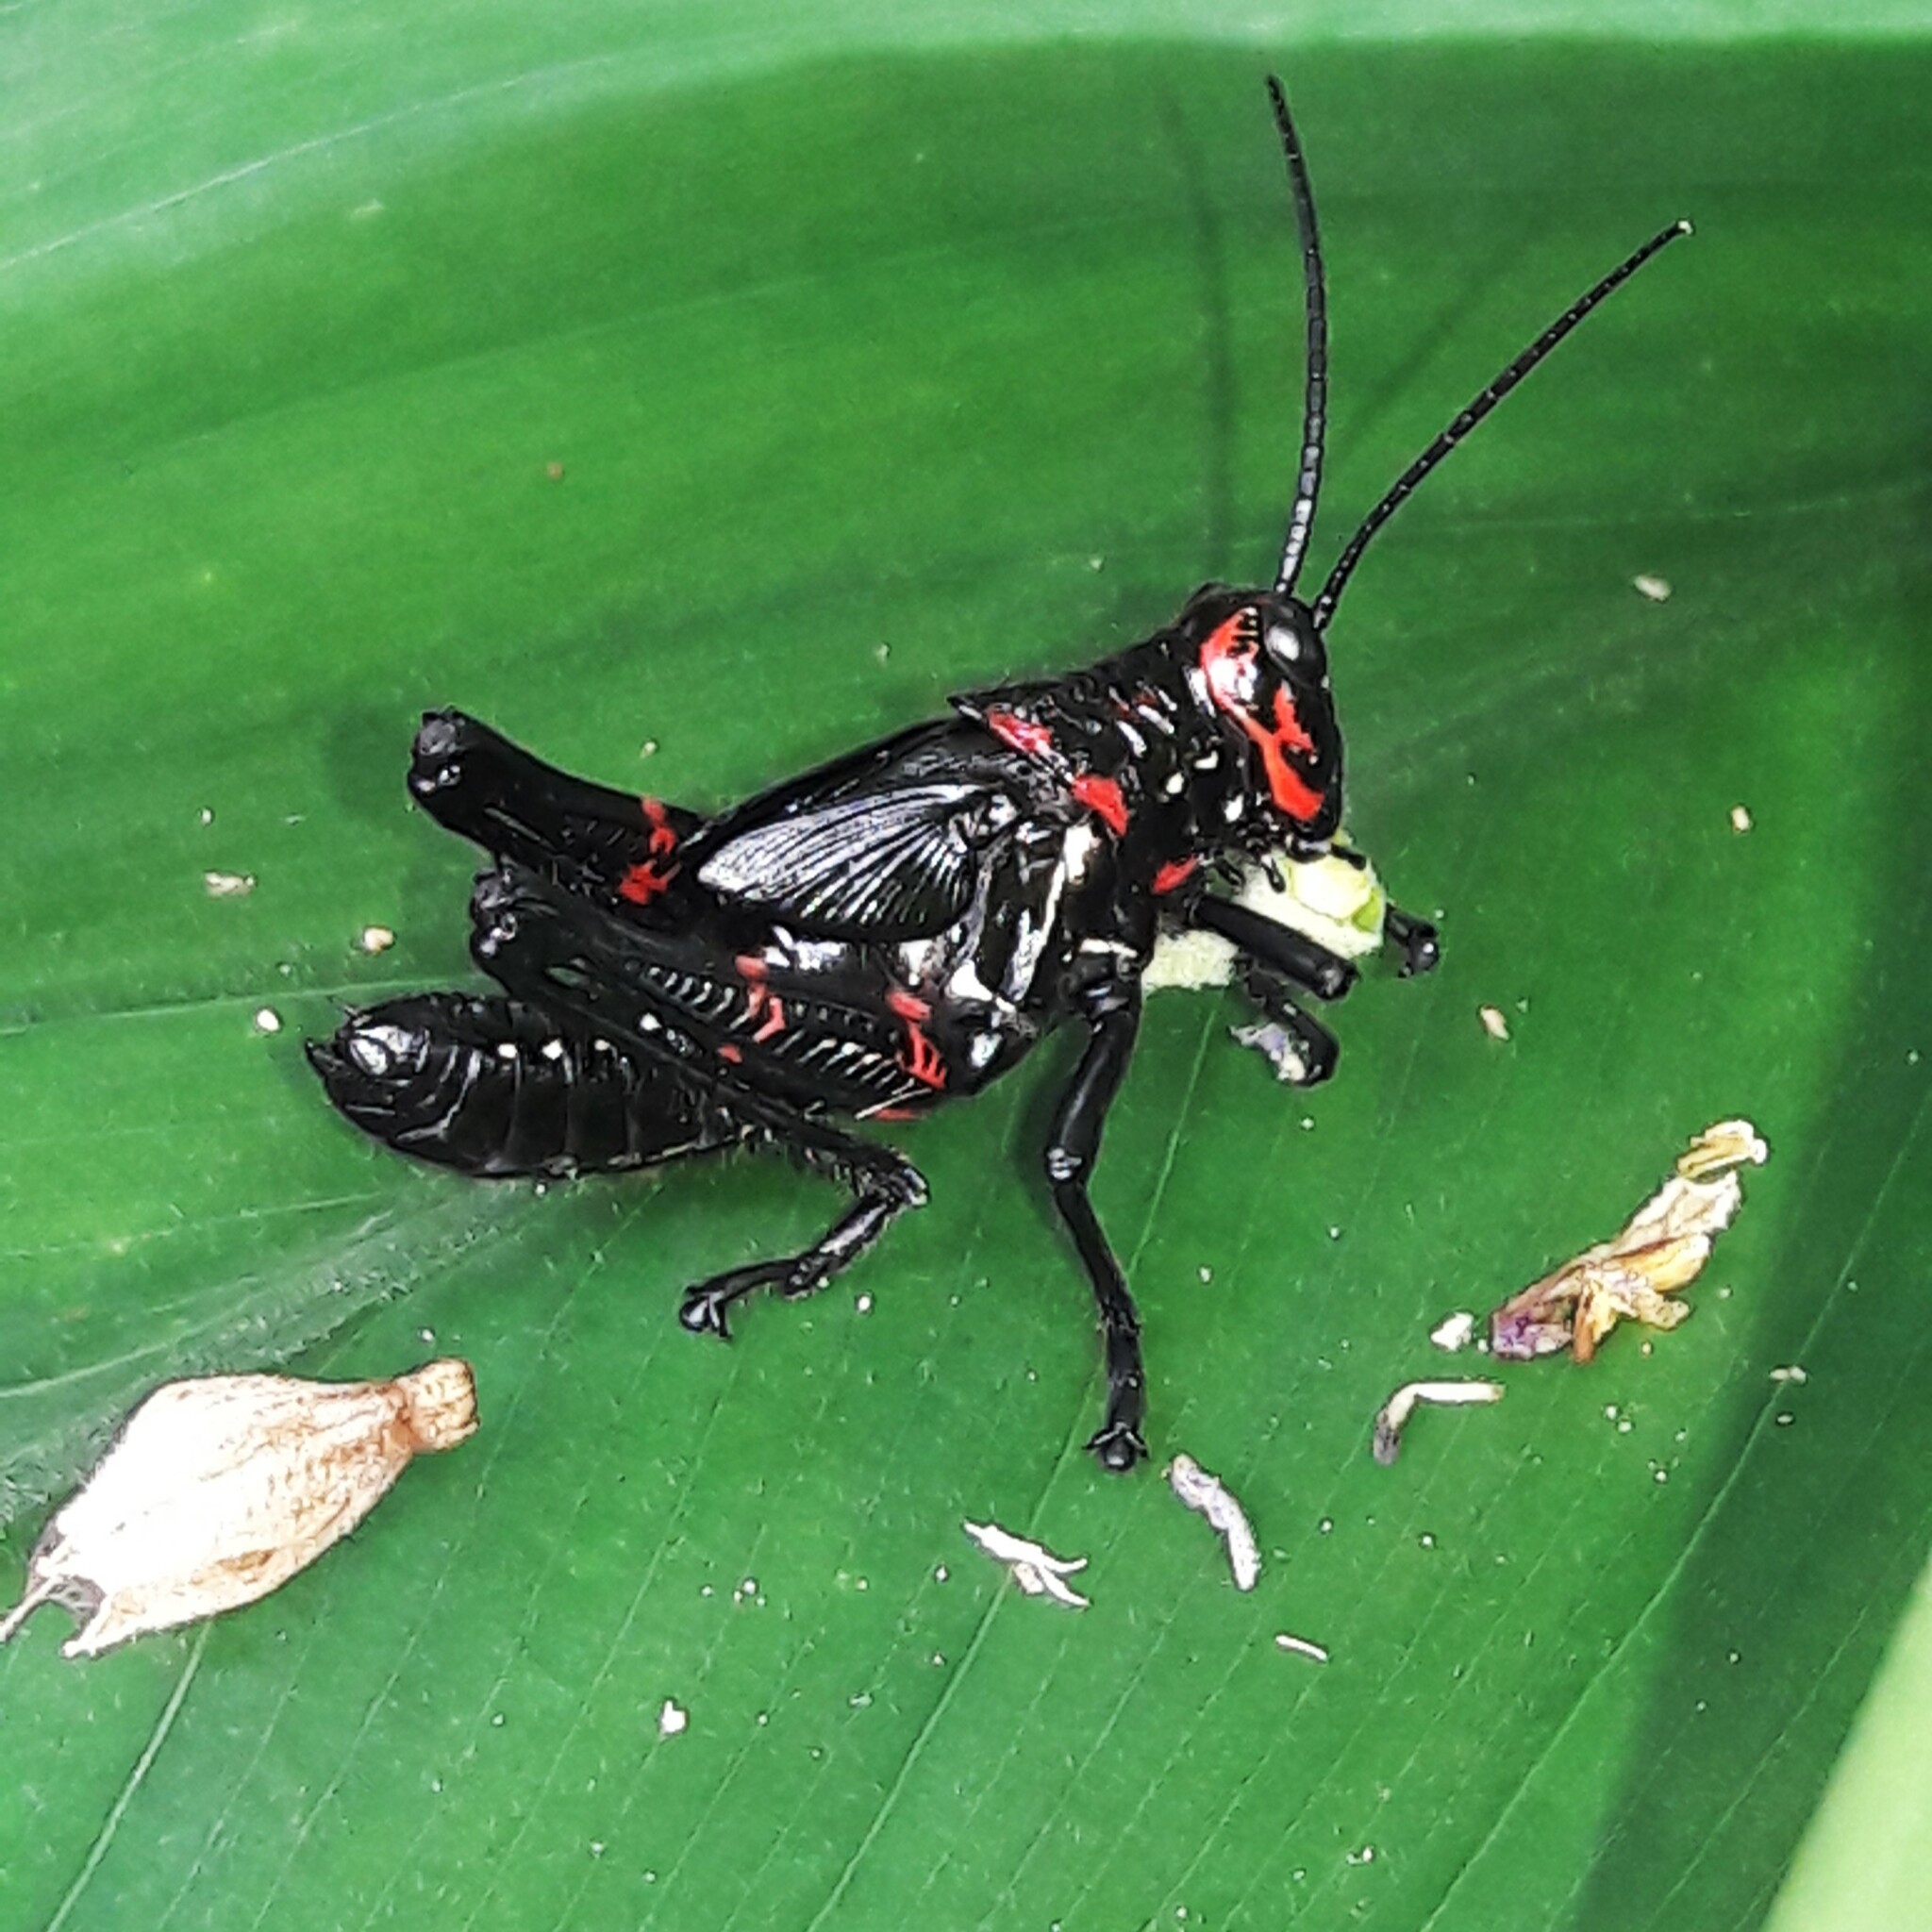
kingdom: Animalia
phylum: Arthropoda
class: Insecta
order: Orthoptera
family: Romaleidae
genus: Chromacris
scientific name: Chromacris speciosa
